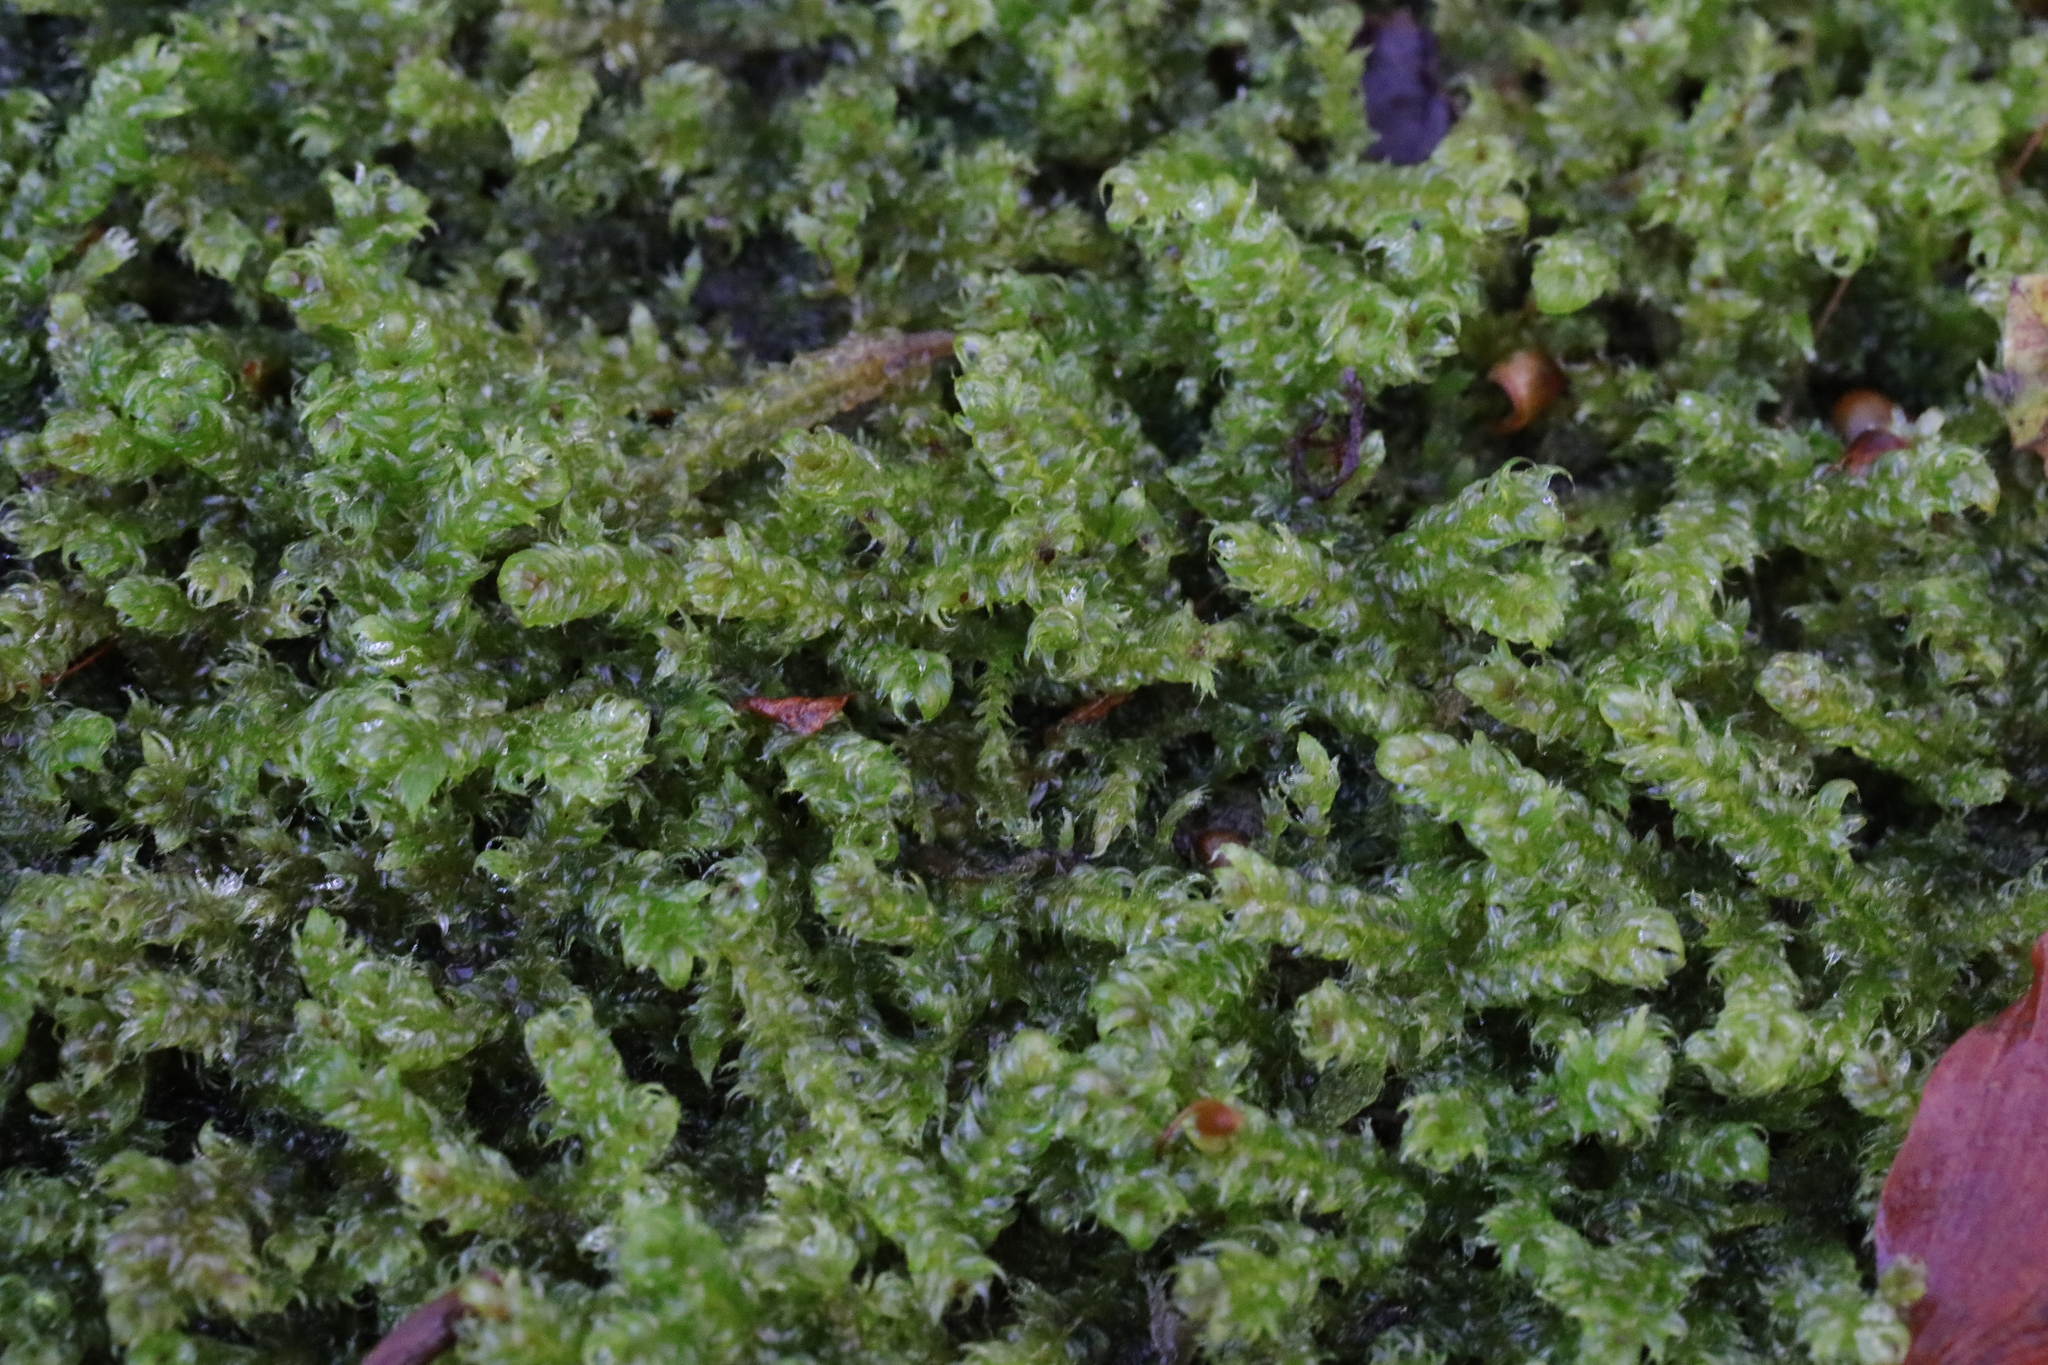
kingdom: Plantae
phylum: Bryophyta
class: Bryopsida
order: Hypnales
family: Hypnaceae
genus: Hypnum
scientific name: Hypnum cupressiforme
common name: Cypress-leaved plait-moss
